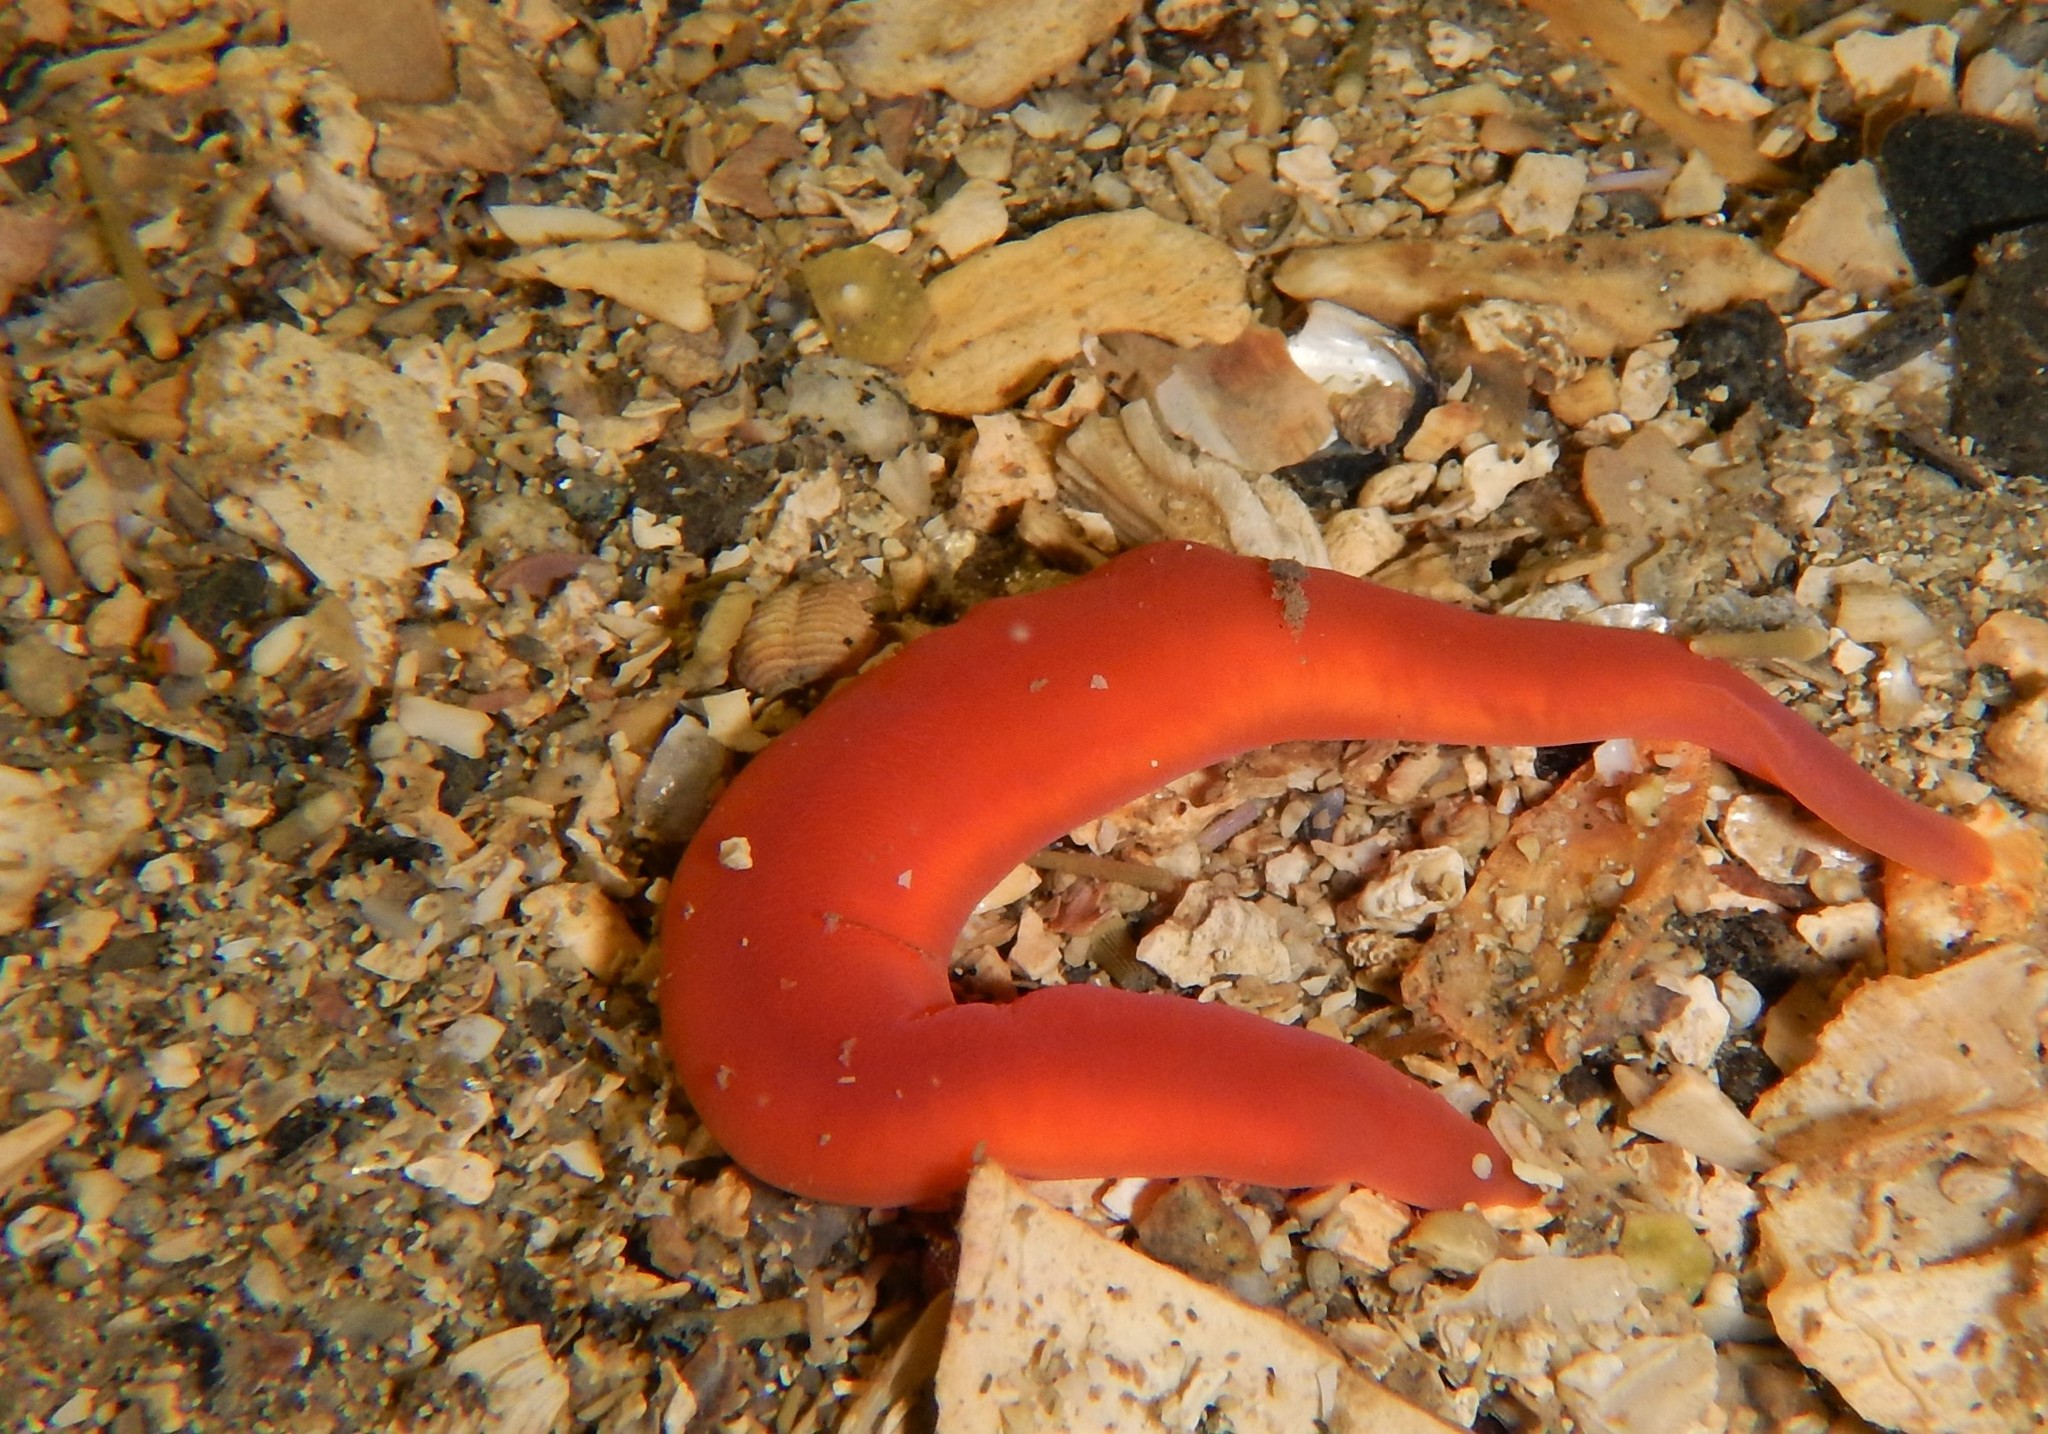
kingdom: Animalia
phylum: Nemertea
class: Hoplonemertea
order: Monostilifera
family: Cratenemertidae
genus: Nipponnemertes
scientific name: Nipponnemertes pulchra
